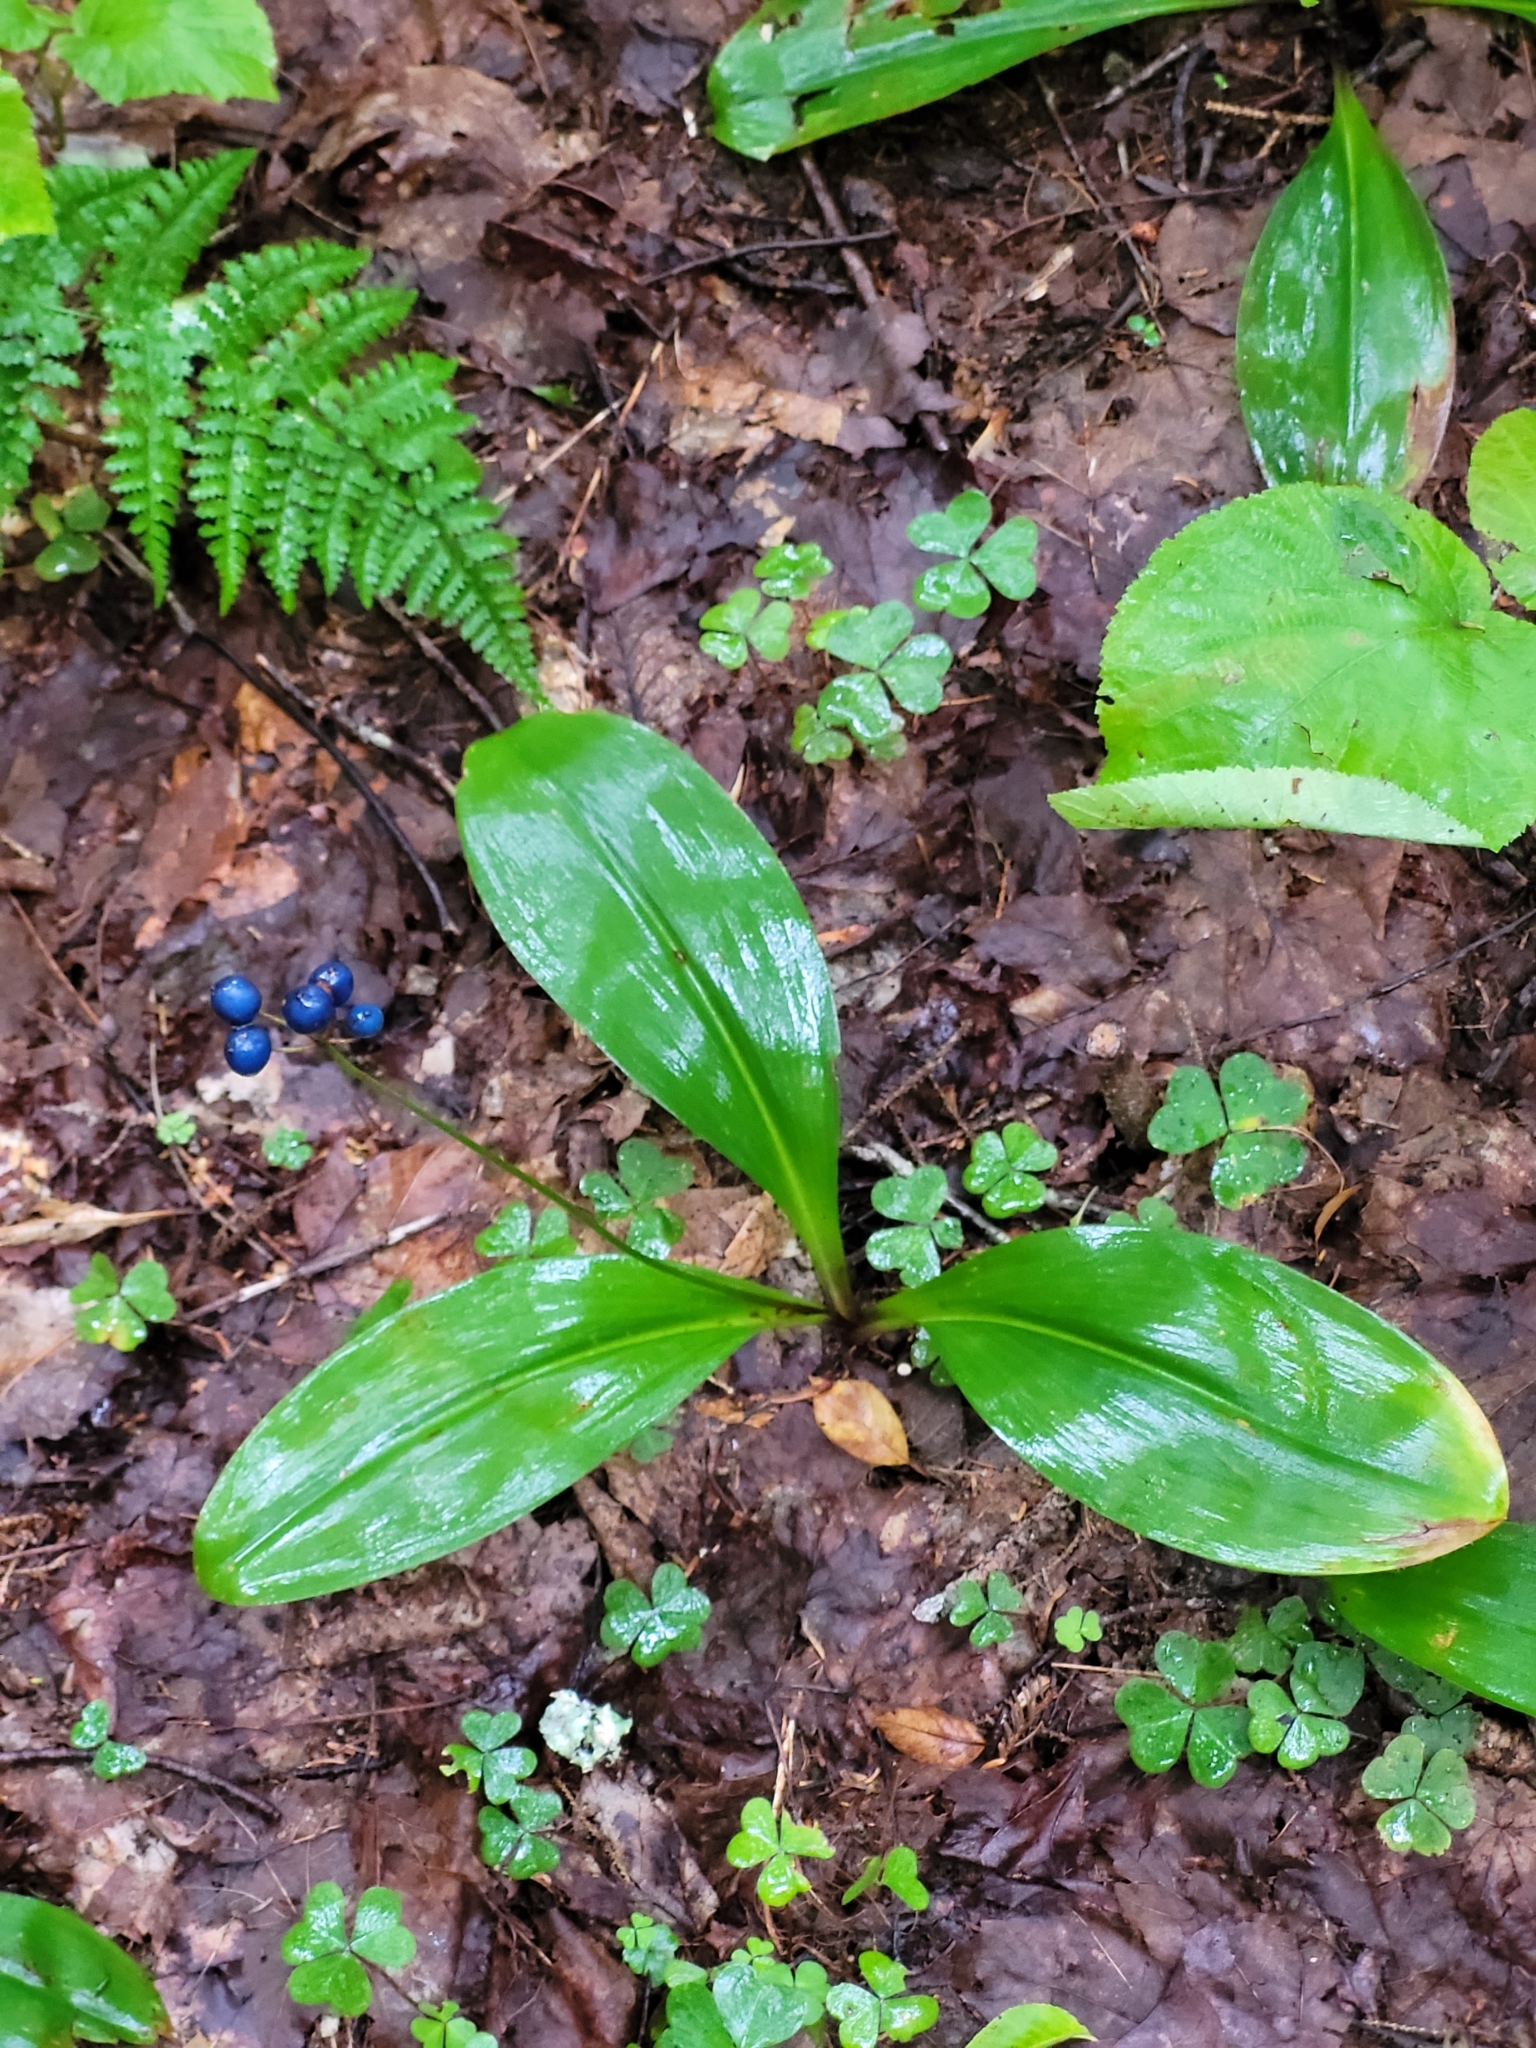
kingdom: Plantae
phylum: Tracheophyta
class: Liliopsida
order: Liliales
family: Liliaceae
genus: Clintonia
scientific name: Clintonia borealis
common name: Yellow clintonia
